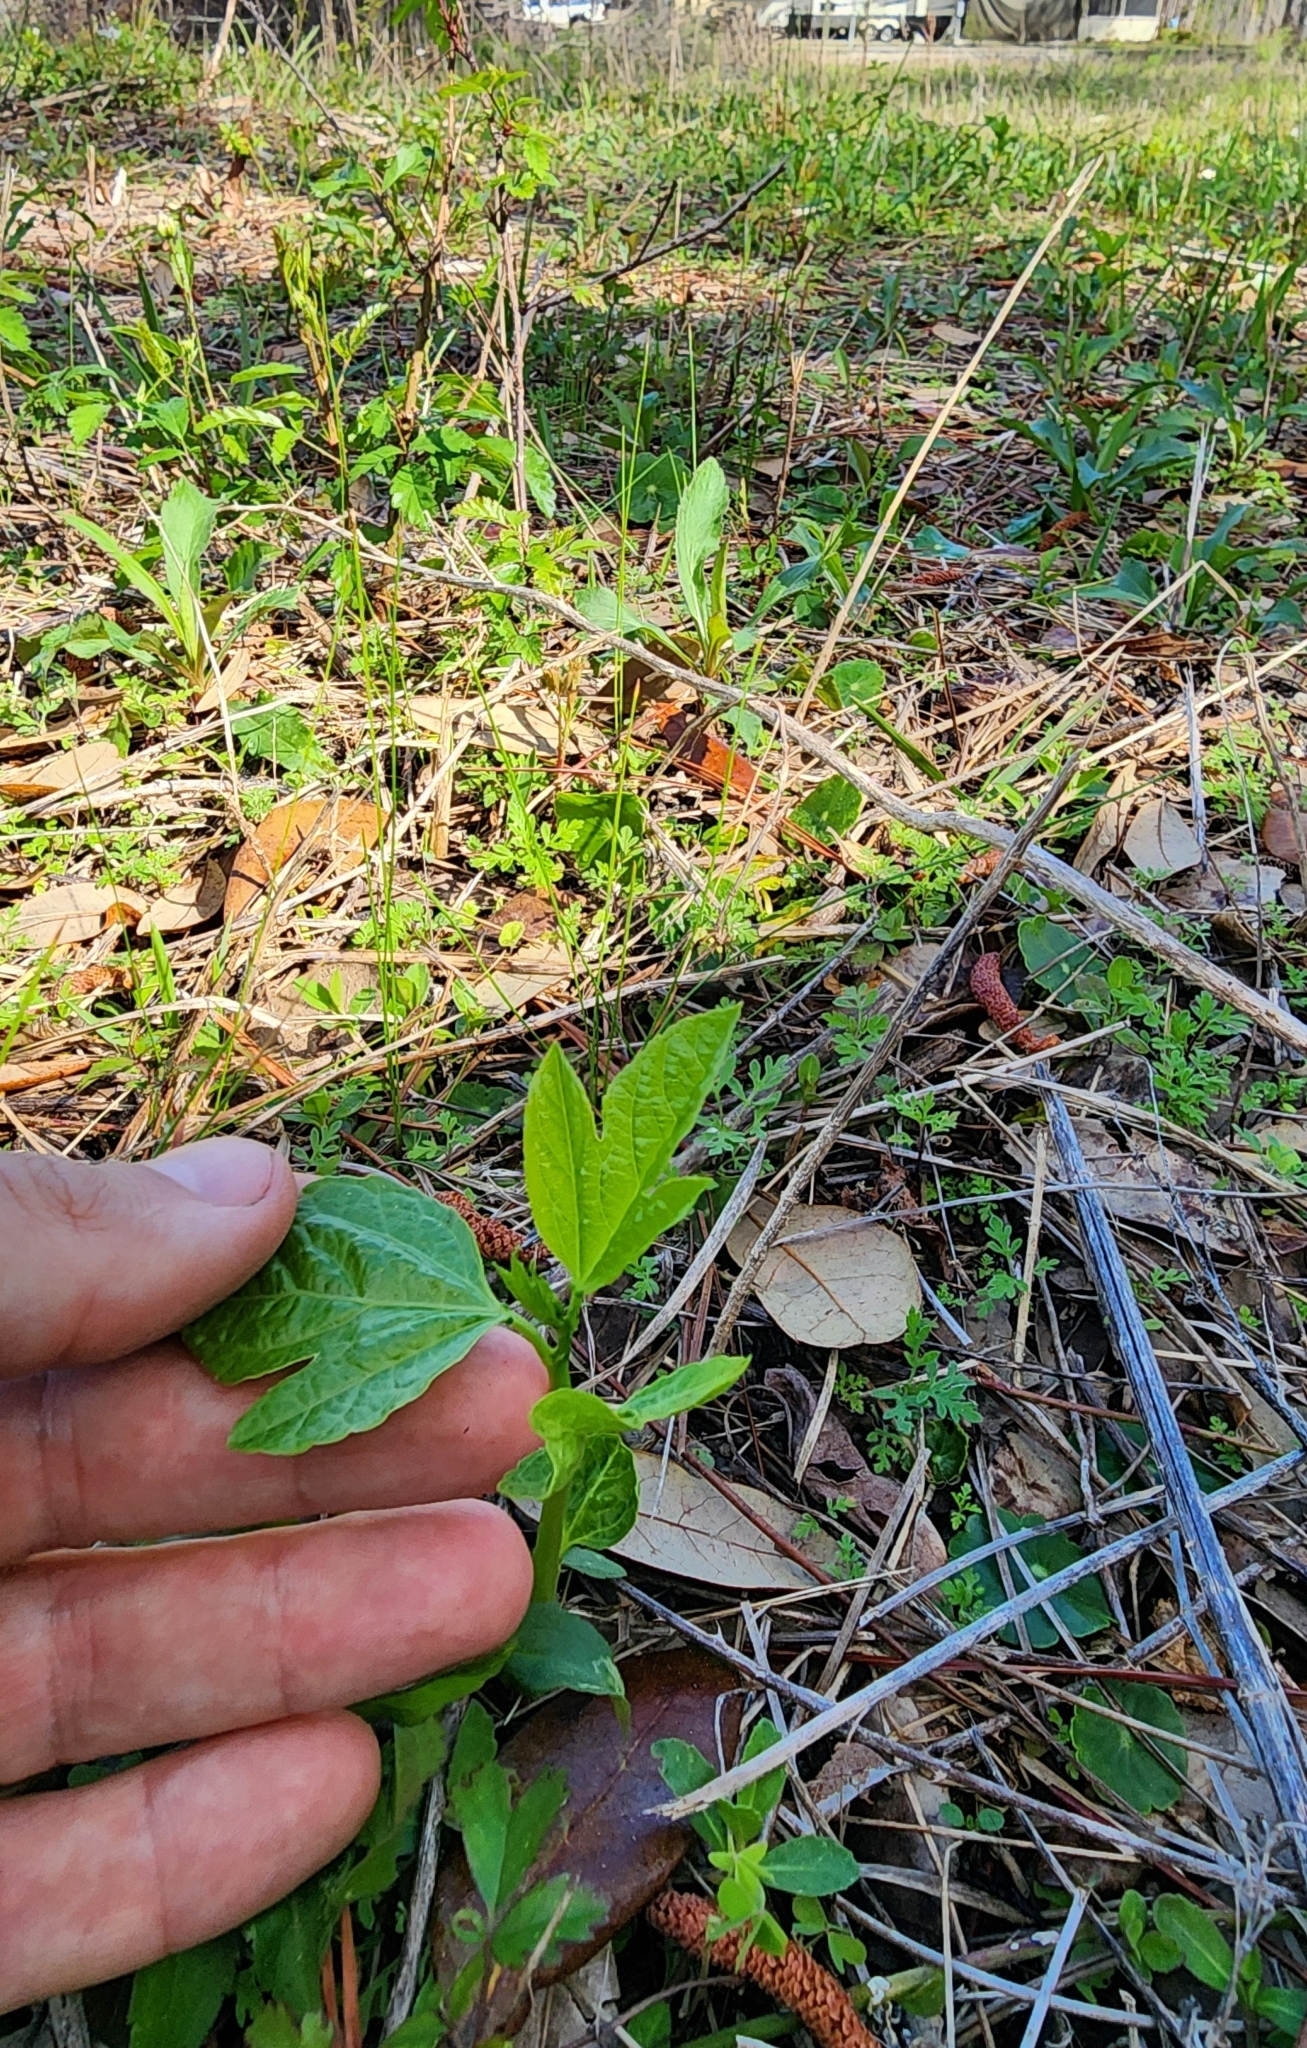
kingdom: Plantae
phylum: Tracheophyta
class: Magnoliopsida
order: Malpighiales
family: Passifloraceae
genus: Passiflora
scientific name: Passiflora incarnata
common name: Apricot-vine
